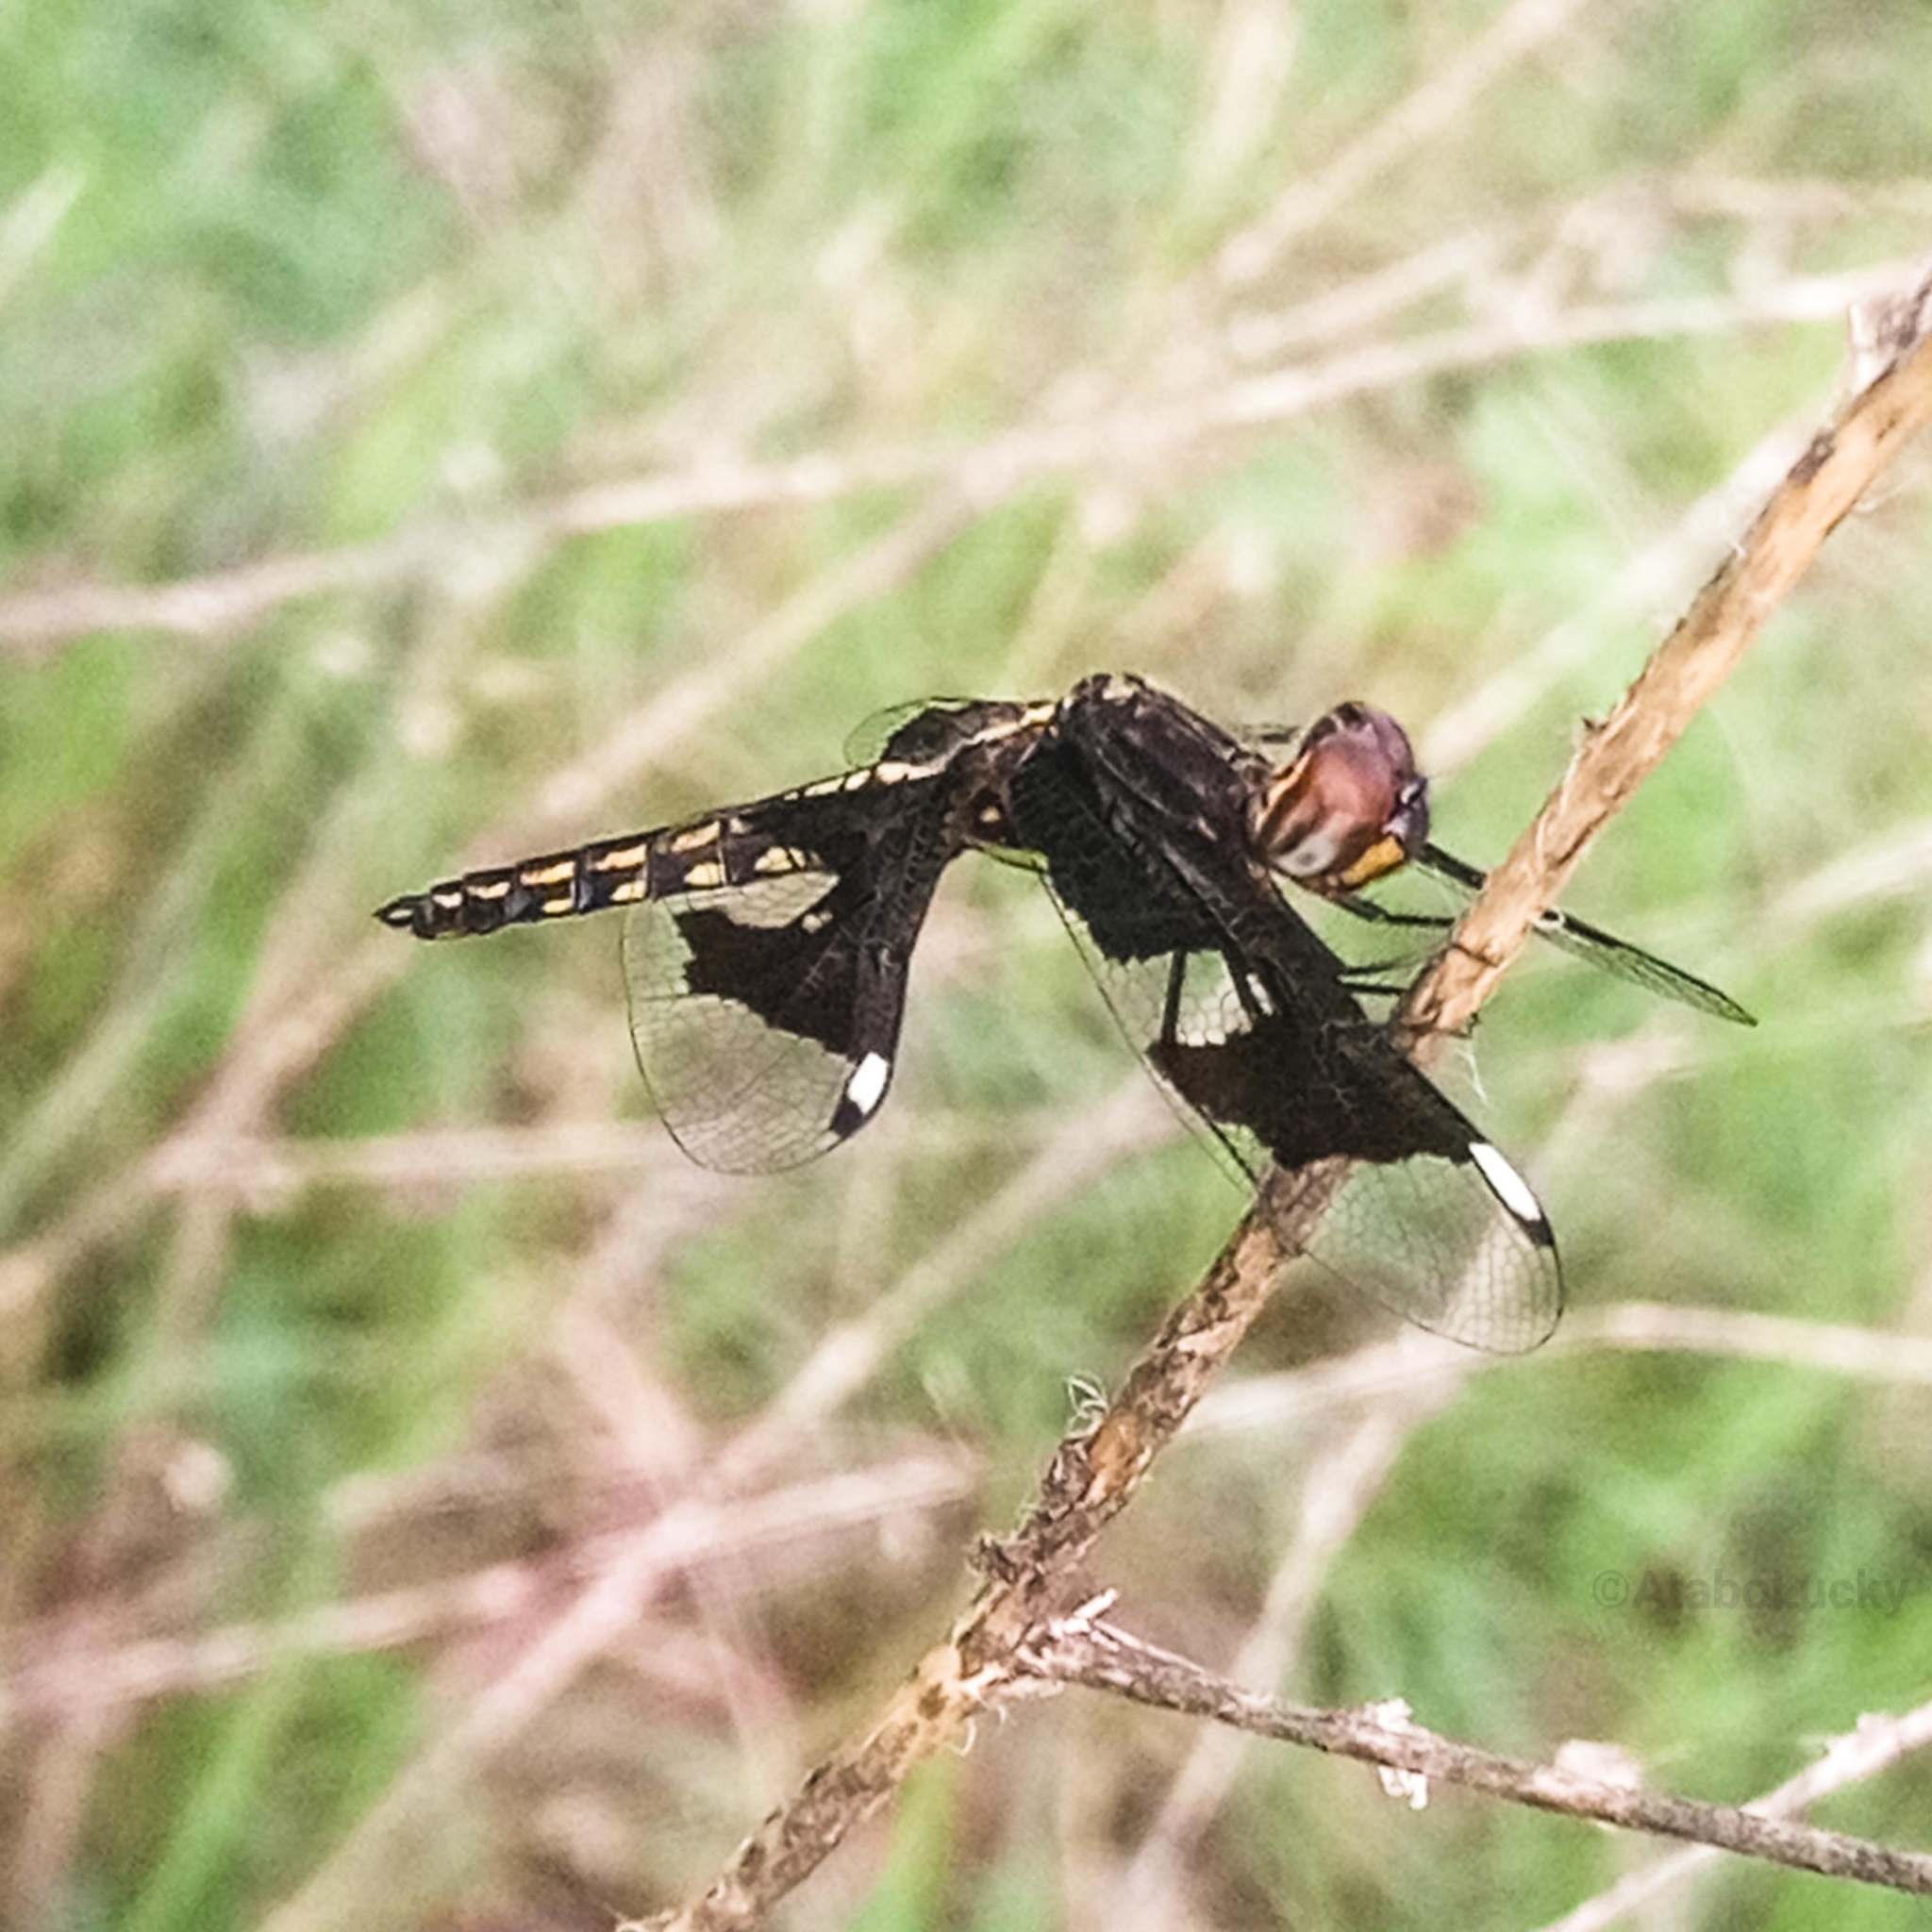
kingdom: Animalia
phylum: Arthropoda
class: Insecta
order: Odonata
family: Libellulidae
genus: Palpopleura
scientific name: Palpopleura portia
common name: Portia widow
